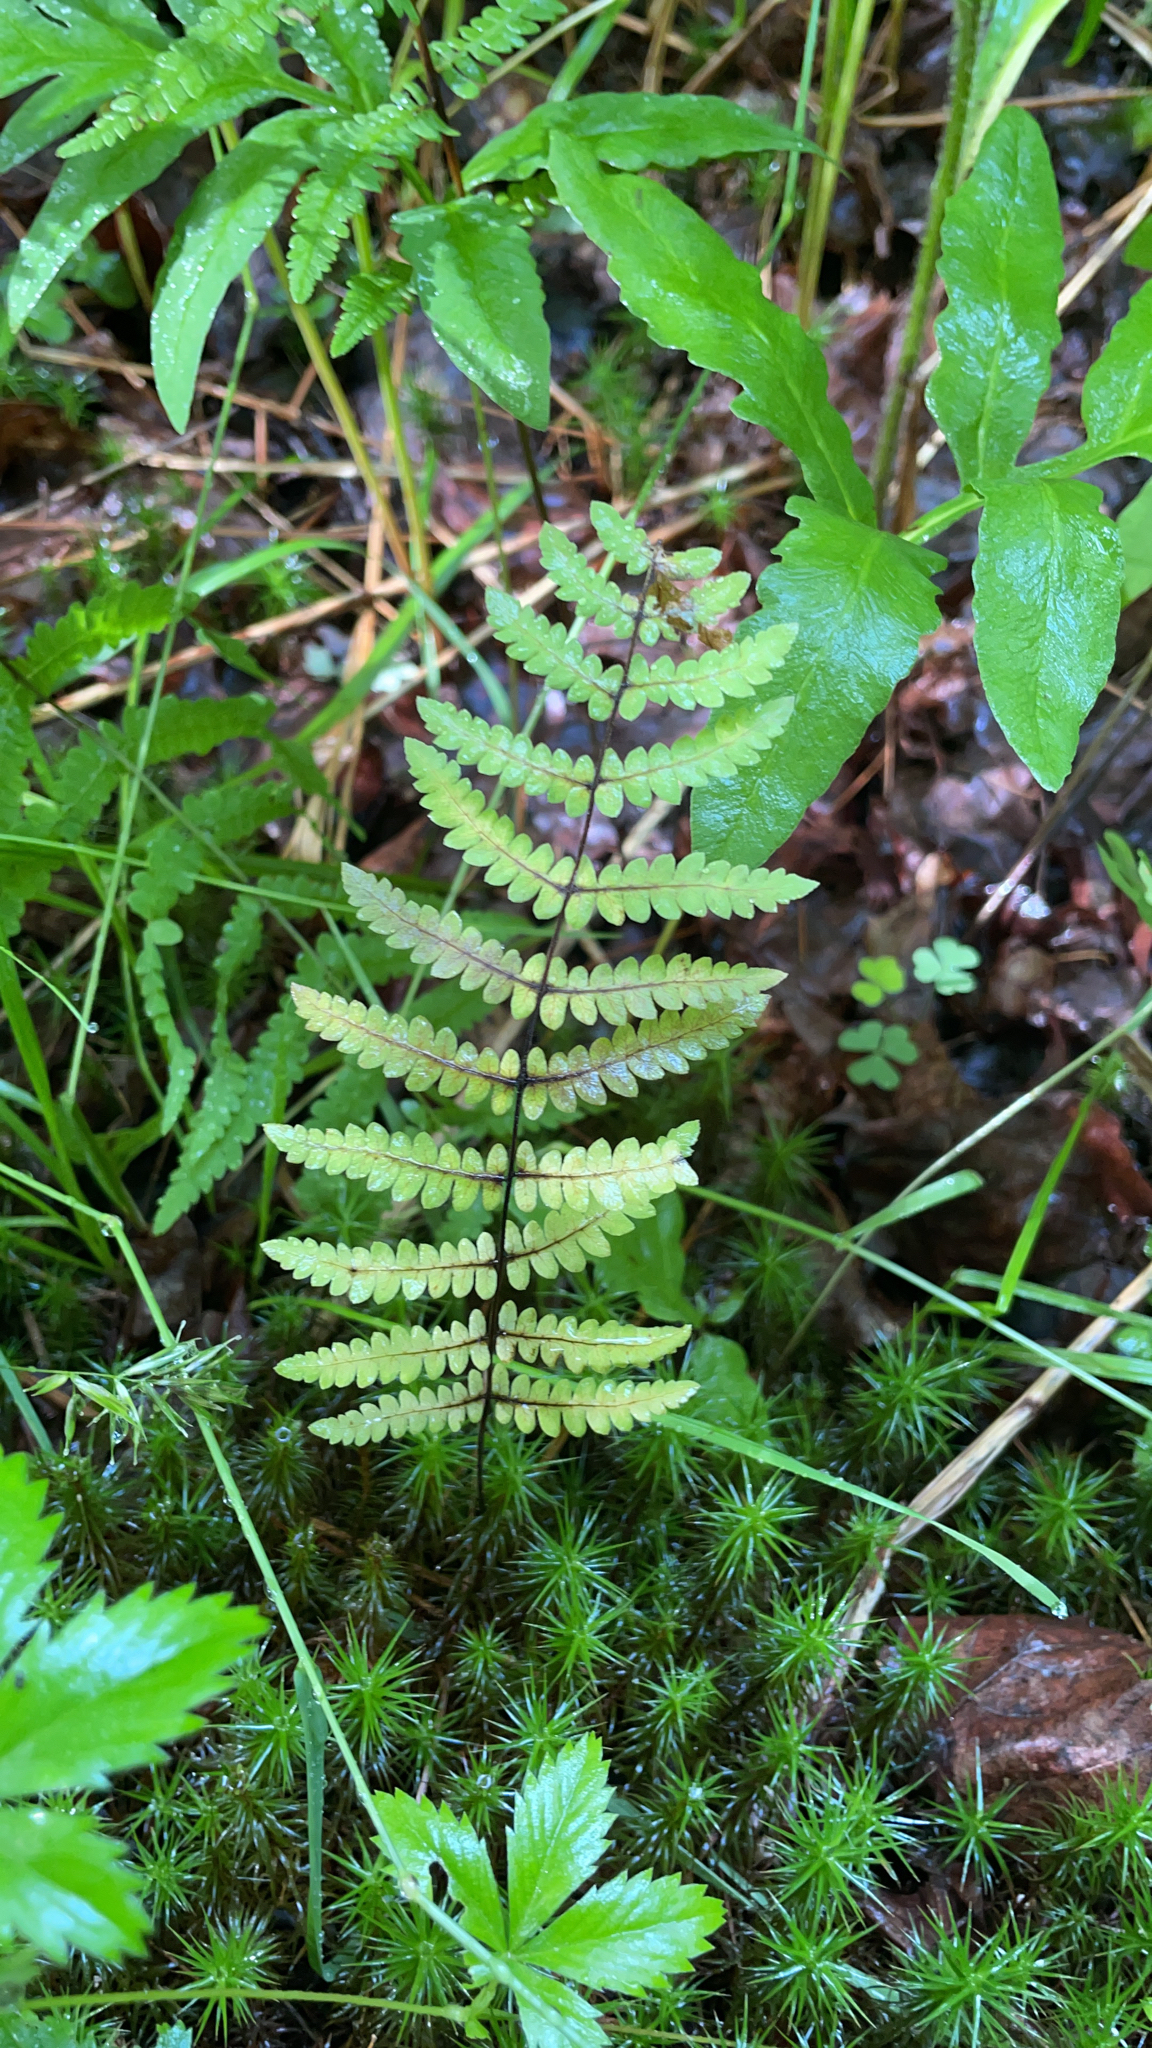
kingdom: Plantae
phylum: Tracheophyta
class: Polypodiopsida
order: Polypodiales
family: Thelypteridaceae
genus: Thelypteris
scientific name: Thelypteris palustris
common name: Marsh fern
